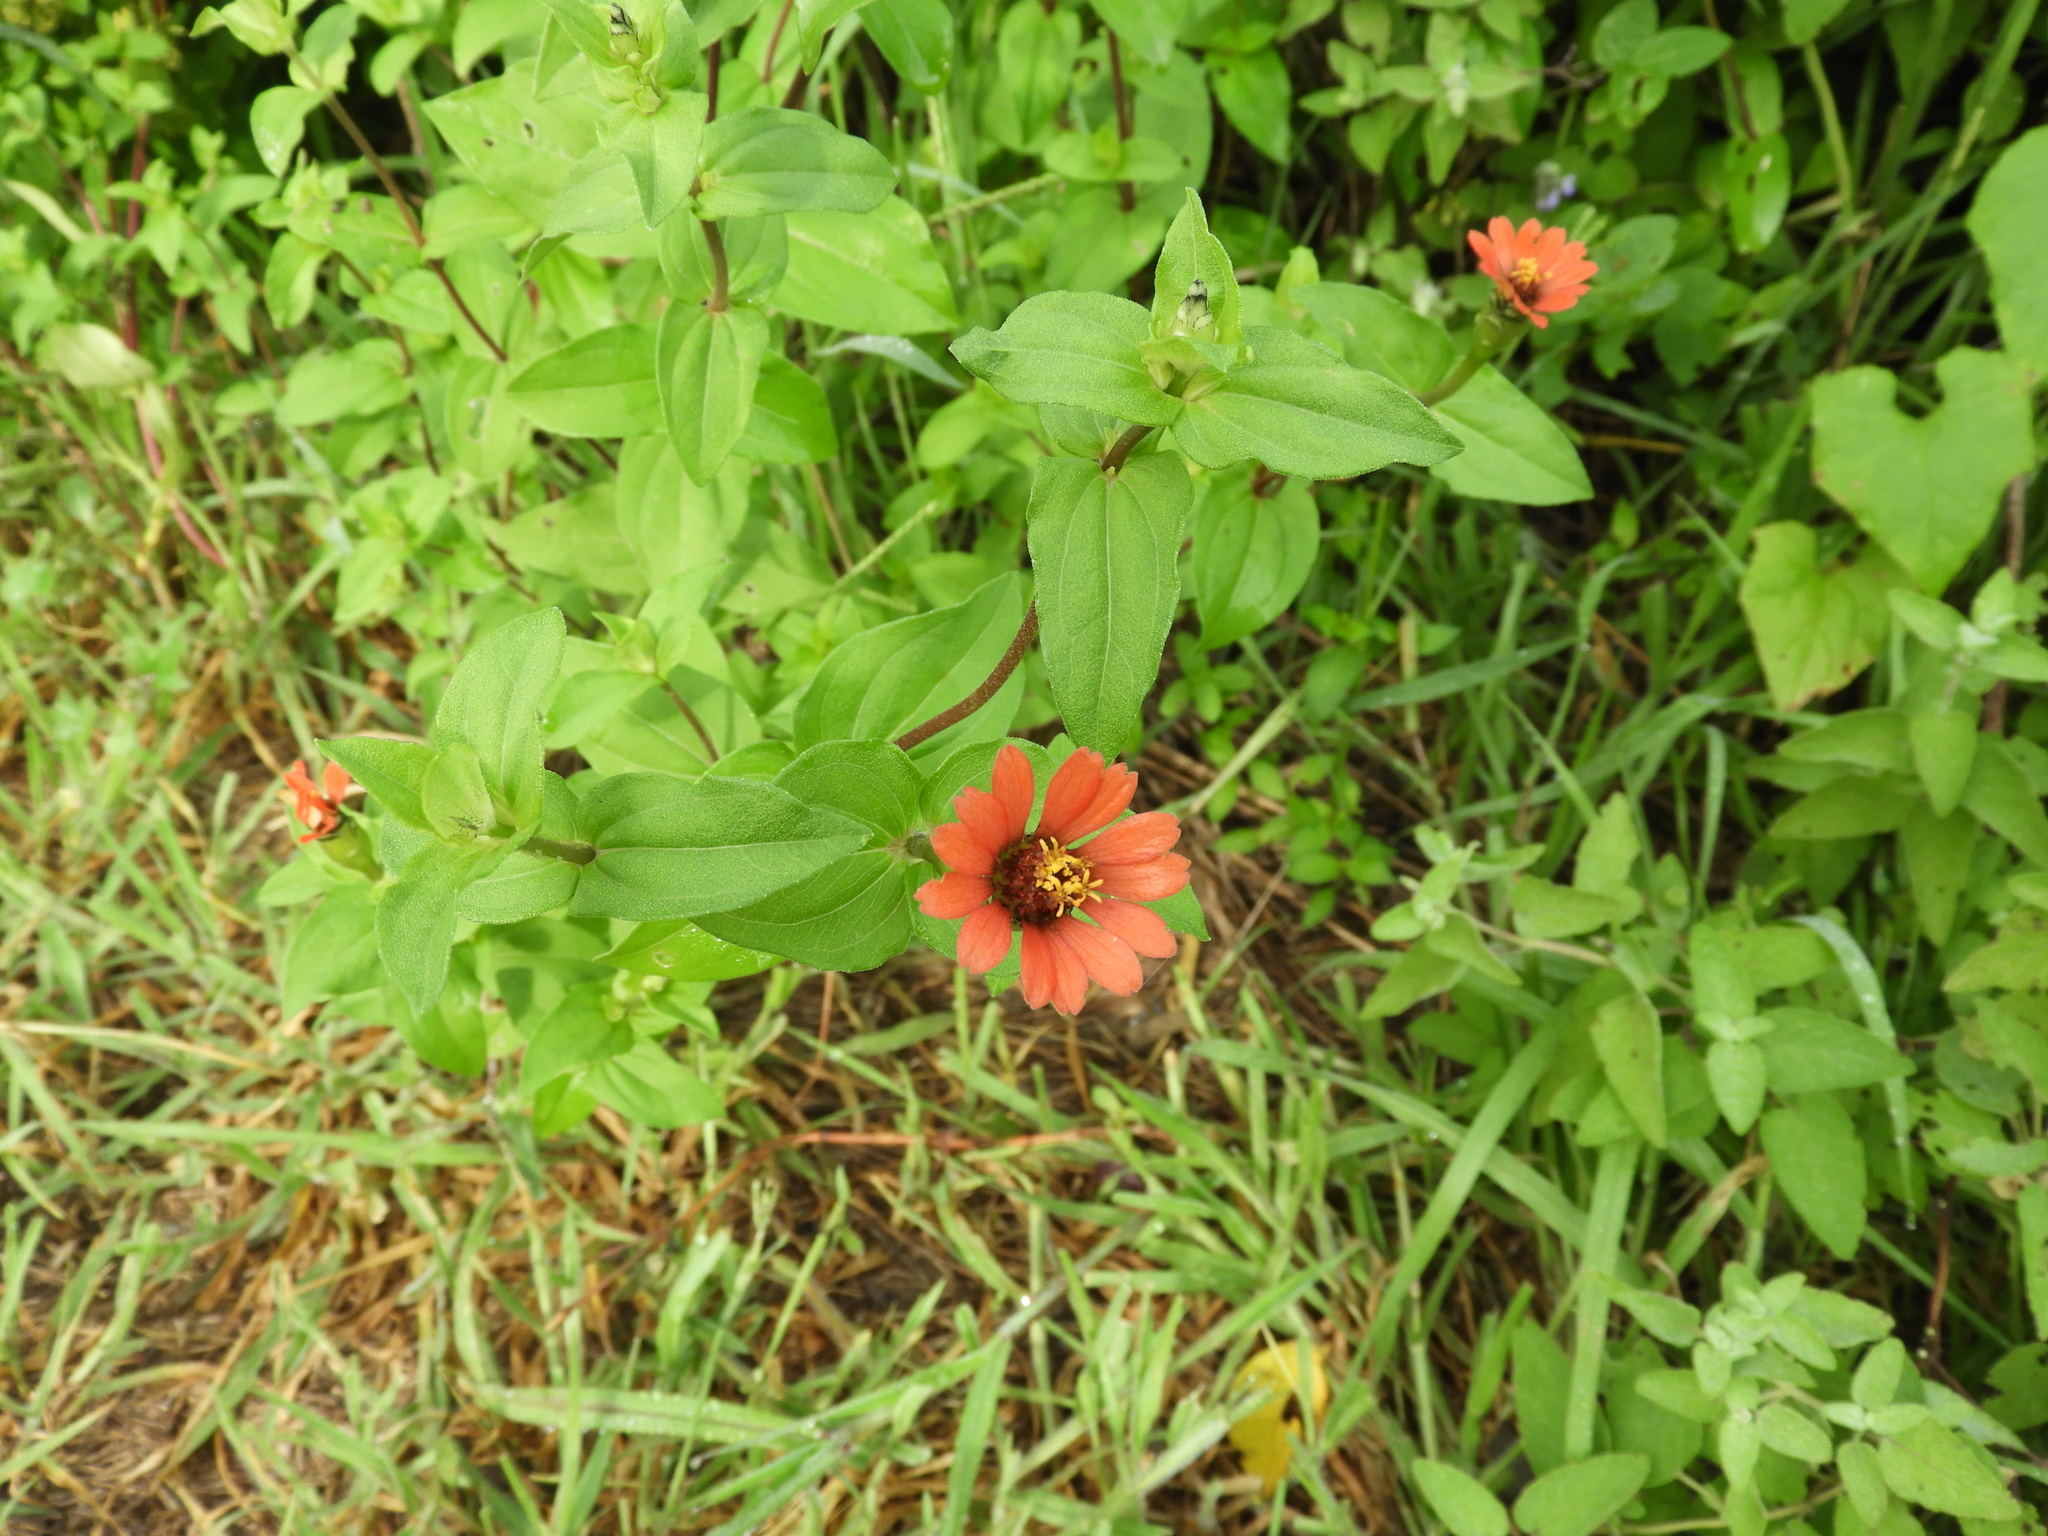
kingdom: Plantae
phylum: Tracheophyta
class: Magnoliopsida
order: Asterales
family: Asteraceae
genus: Zinnia
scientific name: Zinnia peruviana
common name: Peruvian zinnia
